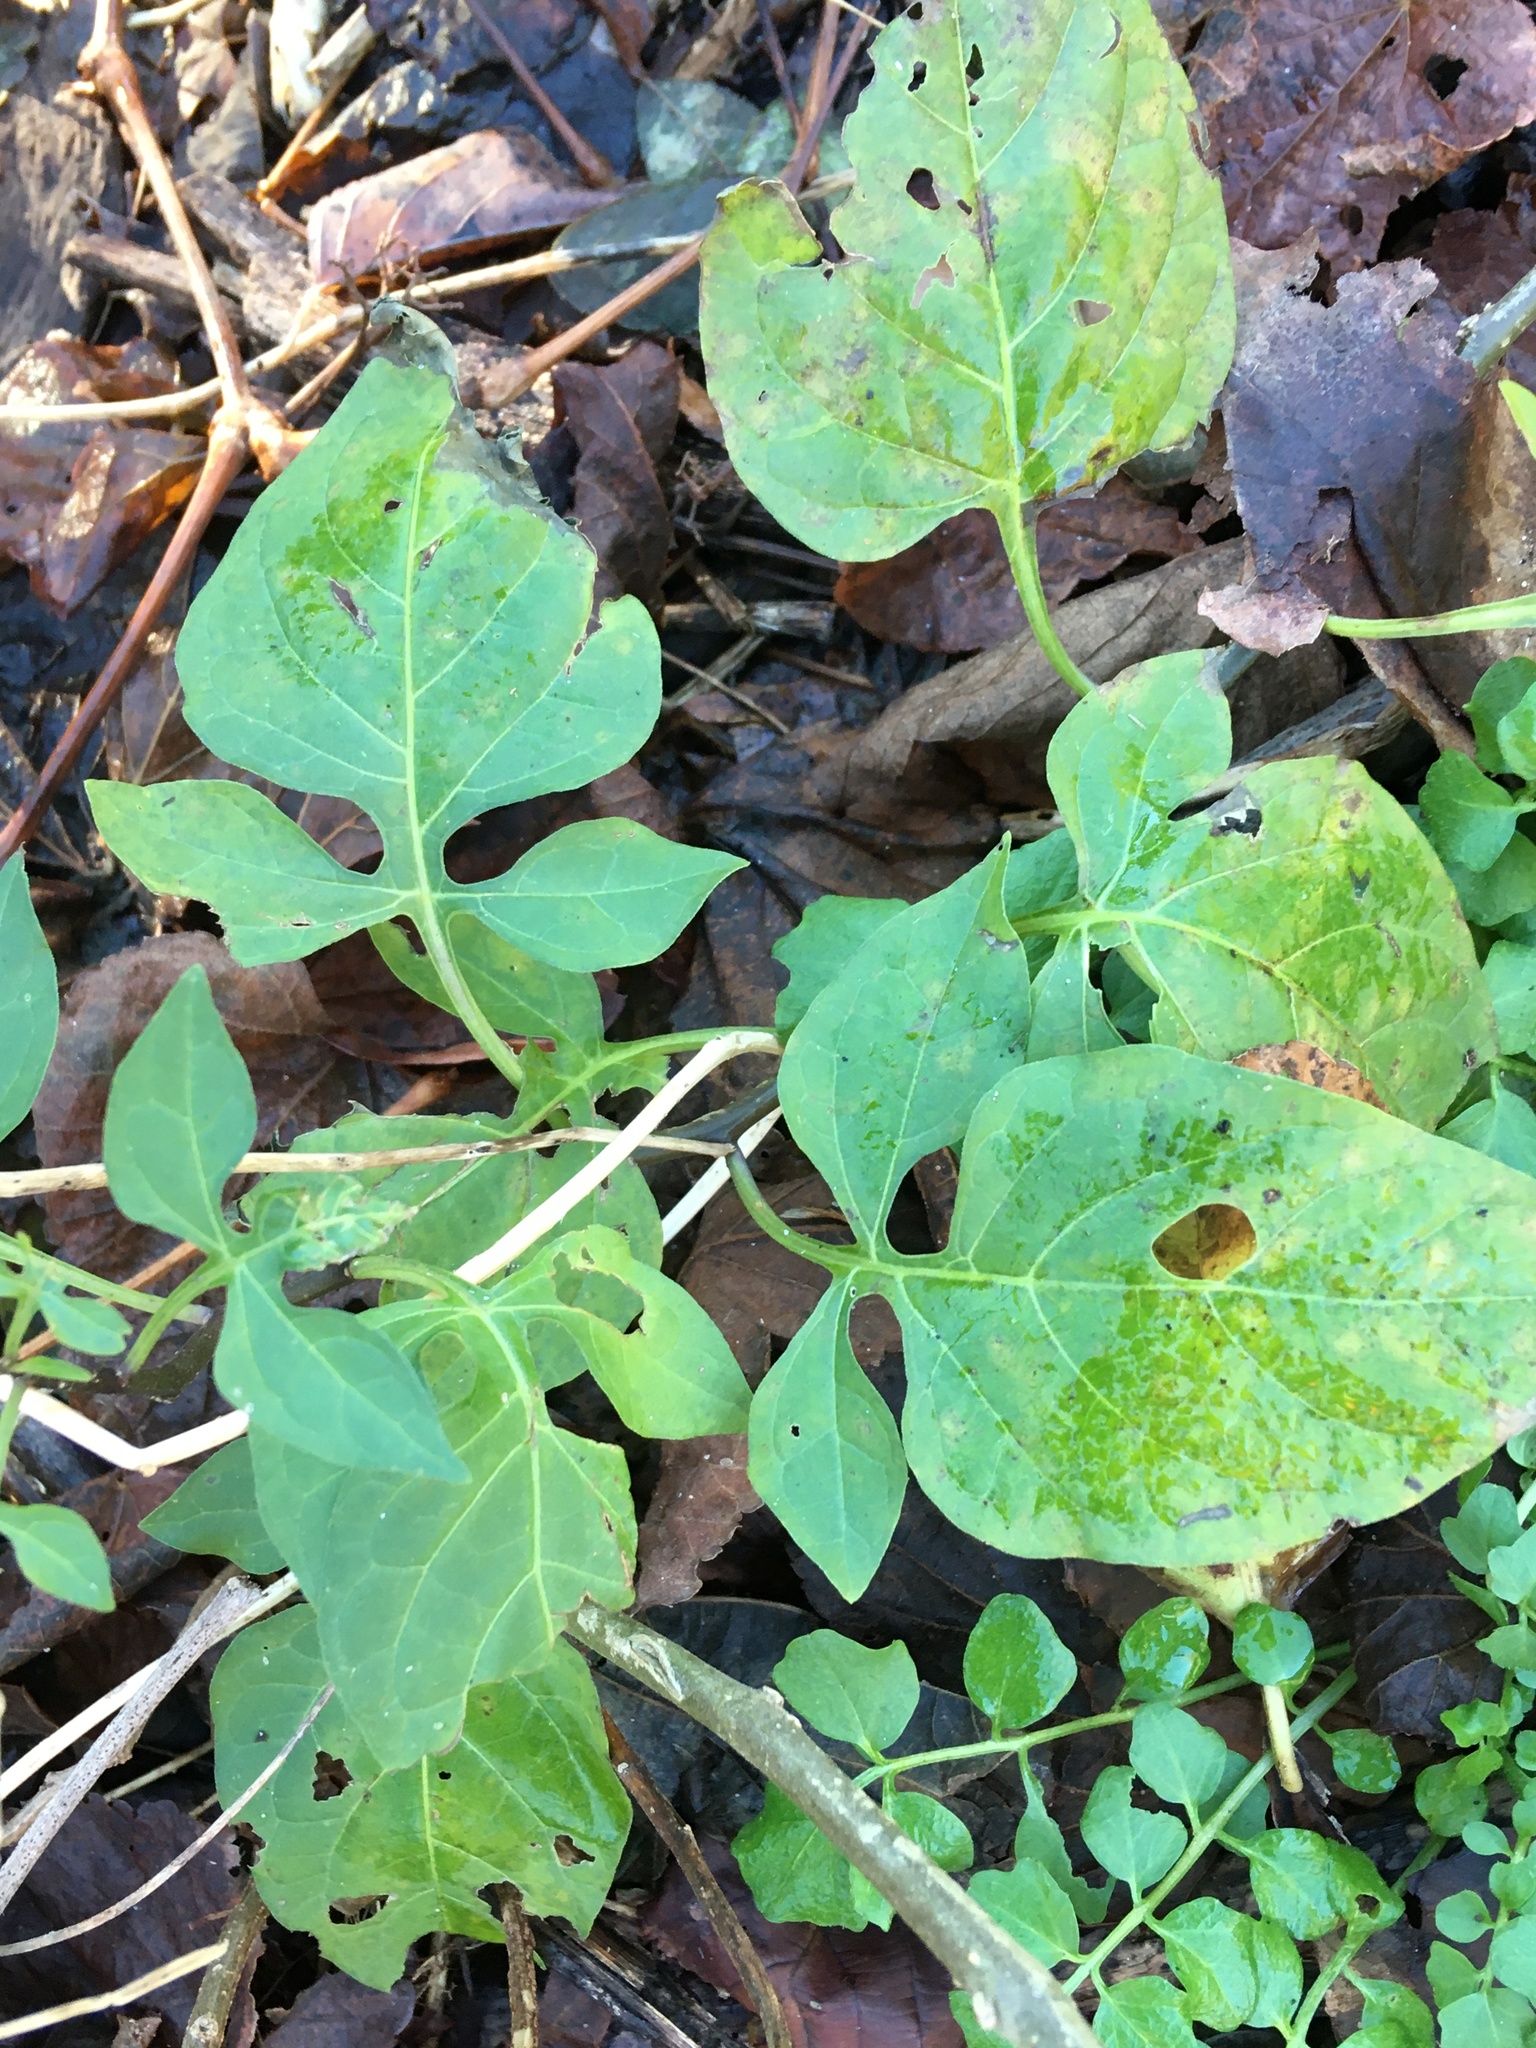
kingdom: Plantae
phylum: Tracheophyta
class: Magnoliopsida
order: Solanales
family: Solanaceae
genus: Solanum
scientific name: Solanum dulcamara
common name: Climbing nightshade
